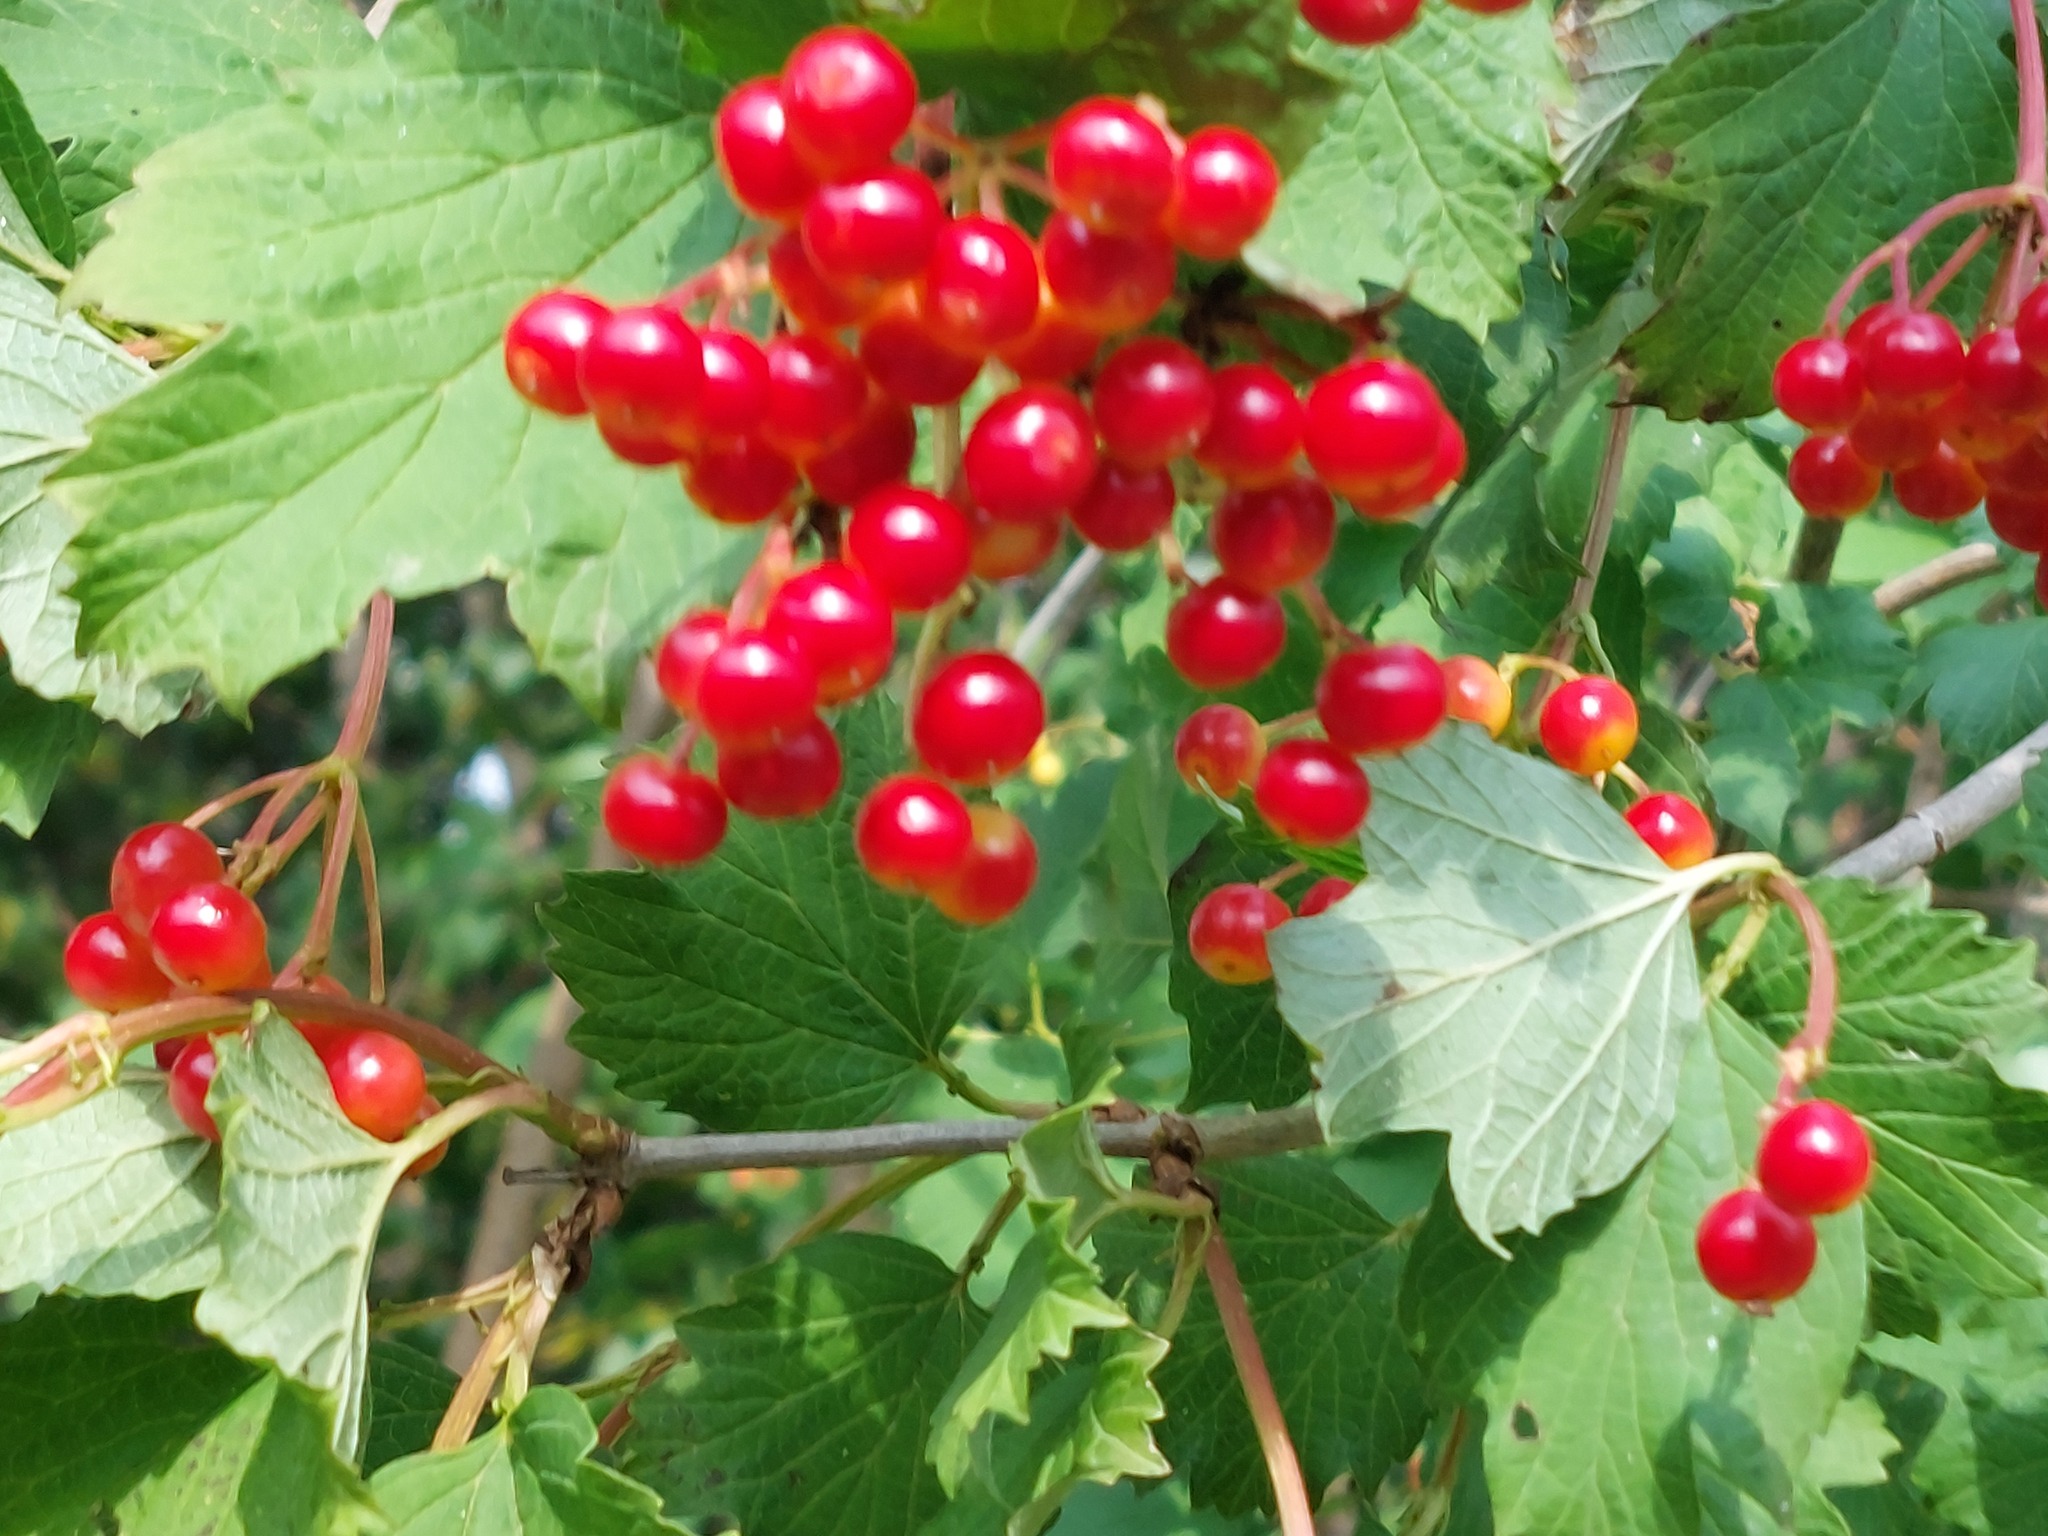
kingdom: Plantae
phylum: Tracheophyta
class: Magnoliopsida
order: Dipsacales
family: Viburnaceae
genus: Viburnum
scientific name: Viburnum opulus
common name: Guelder-rose
